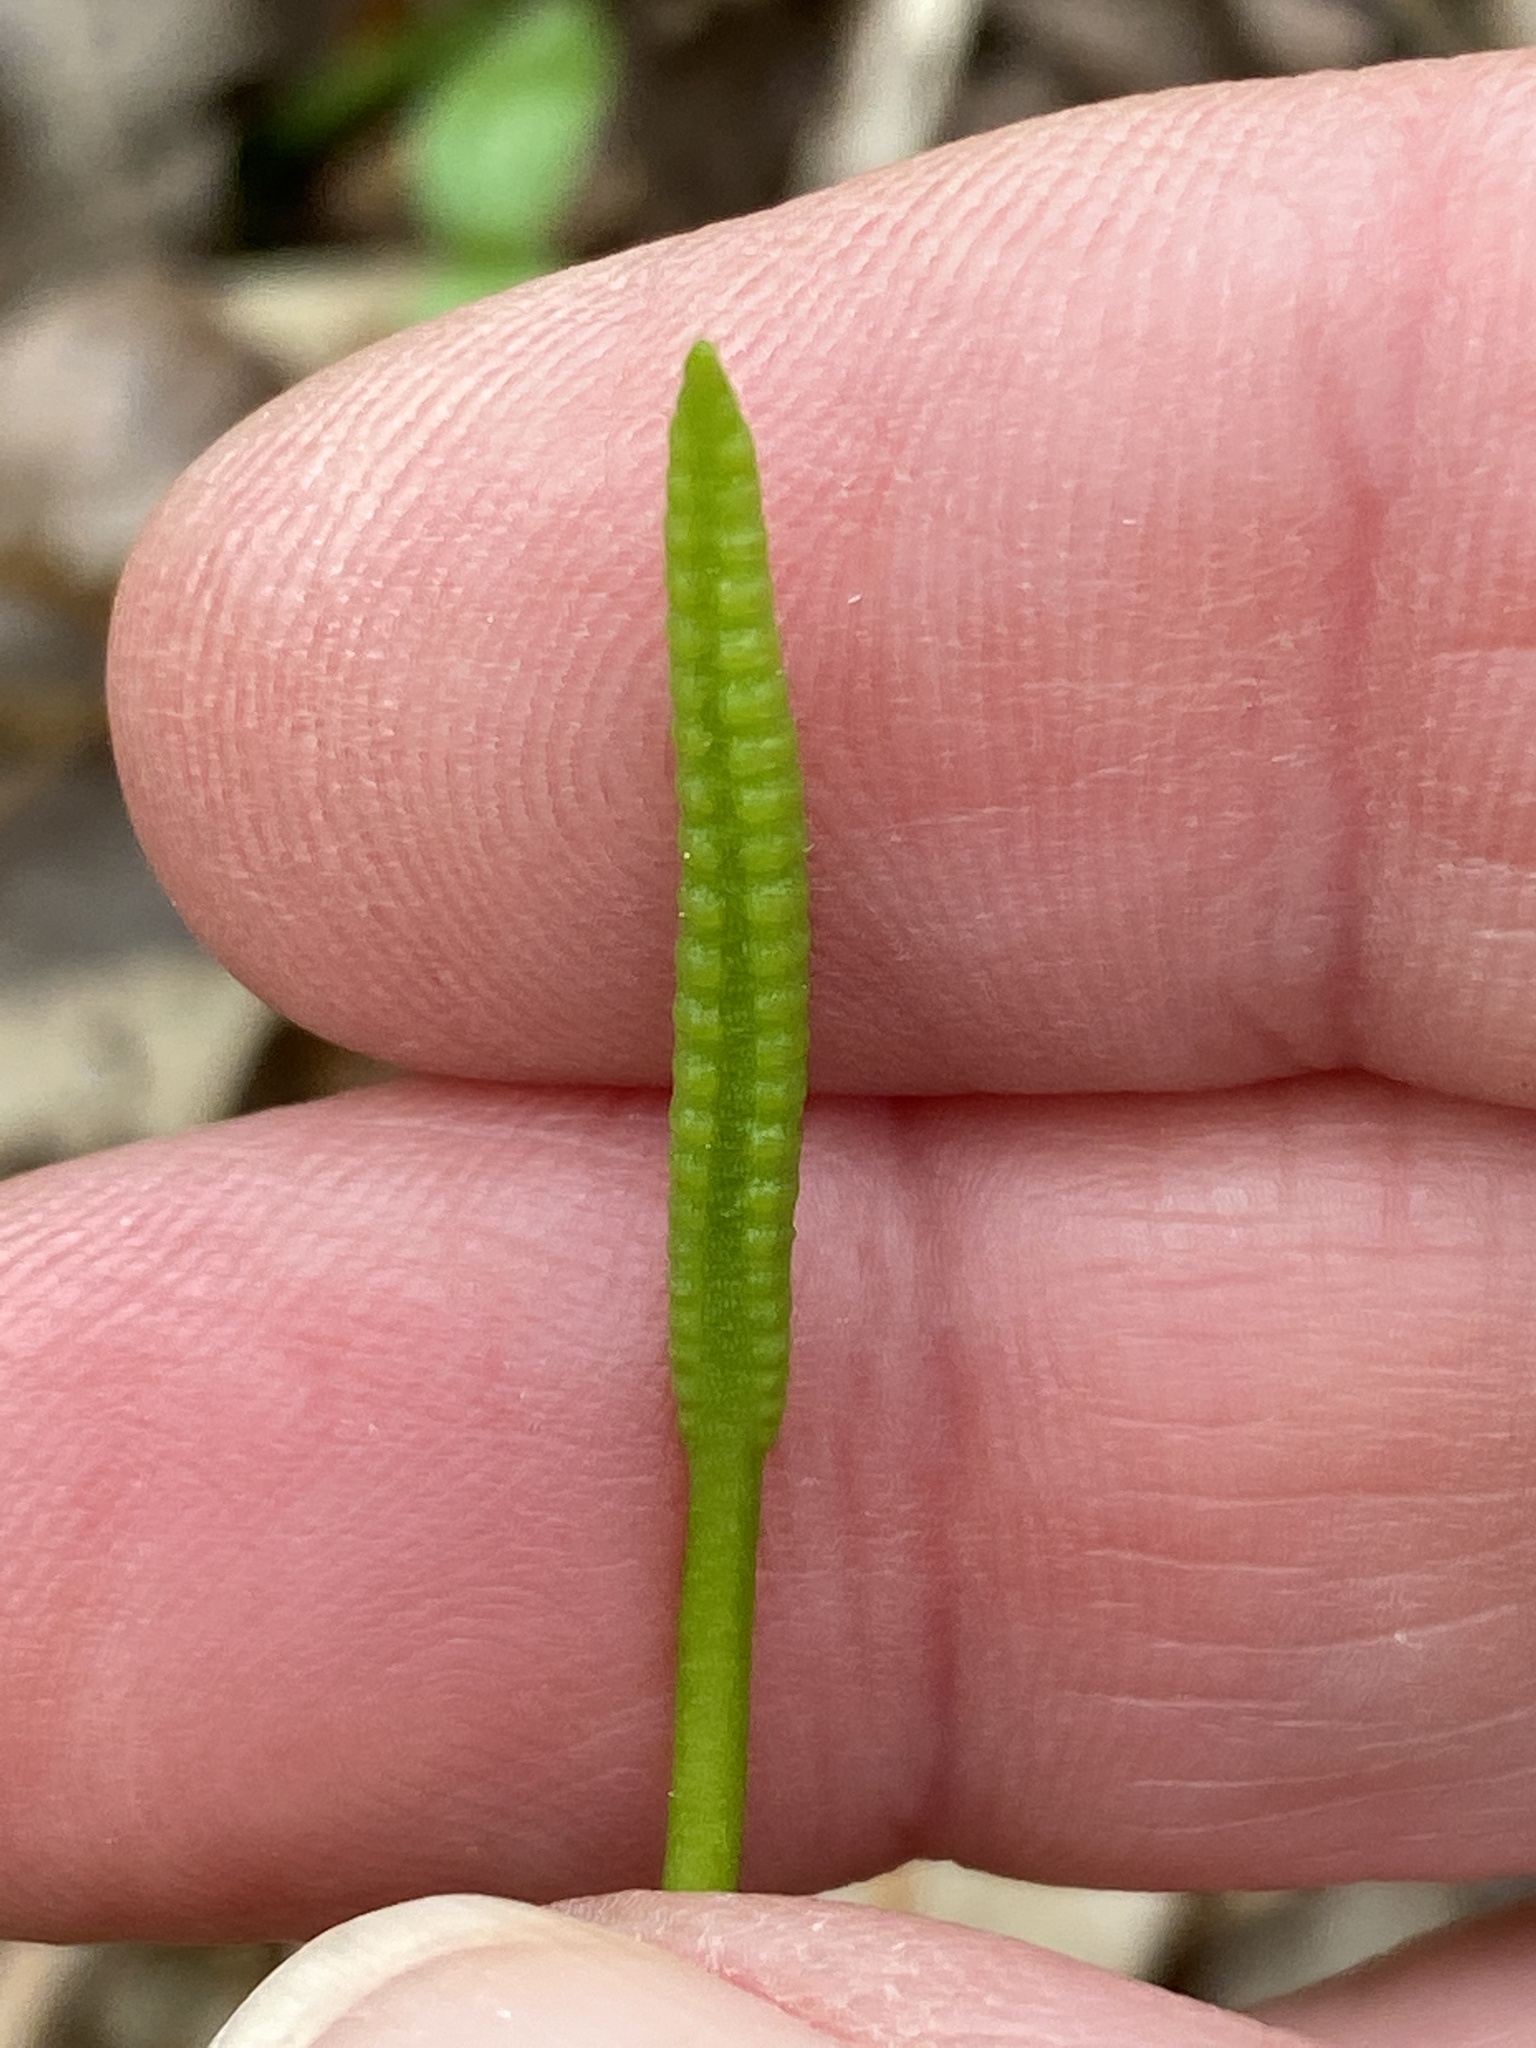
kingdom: Plantae
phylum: Tracheophyta
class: Polypodiopsida
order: Ophioglossales
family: Ophioglossaceae
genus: Ophioglossum
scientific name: Ophioglossum vulgatum
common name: Adder's-tongue
